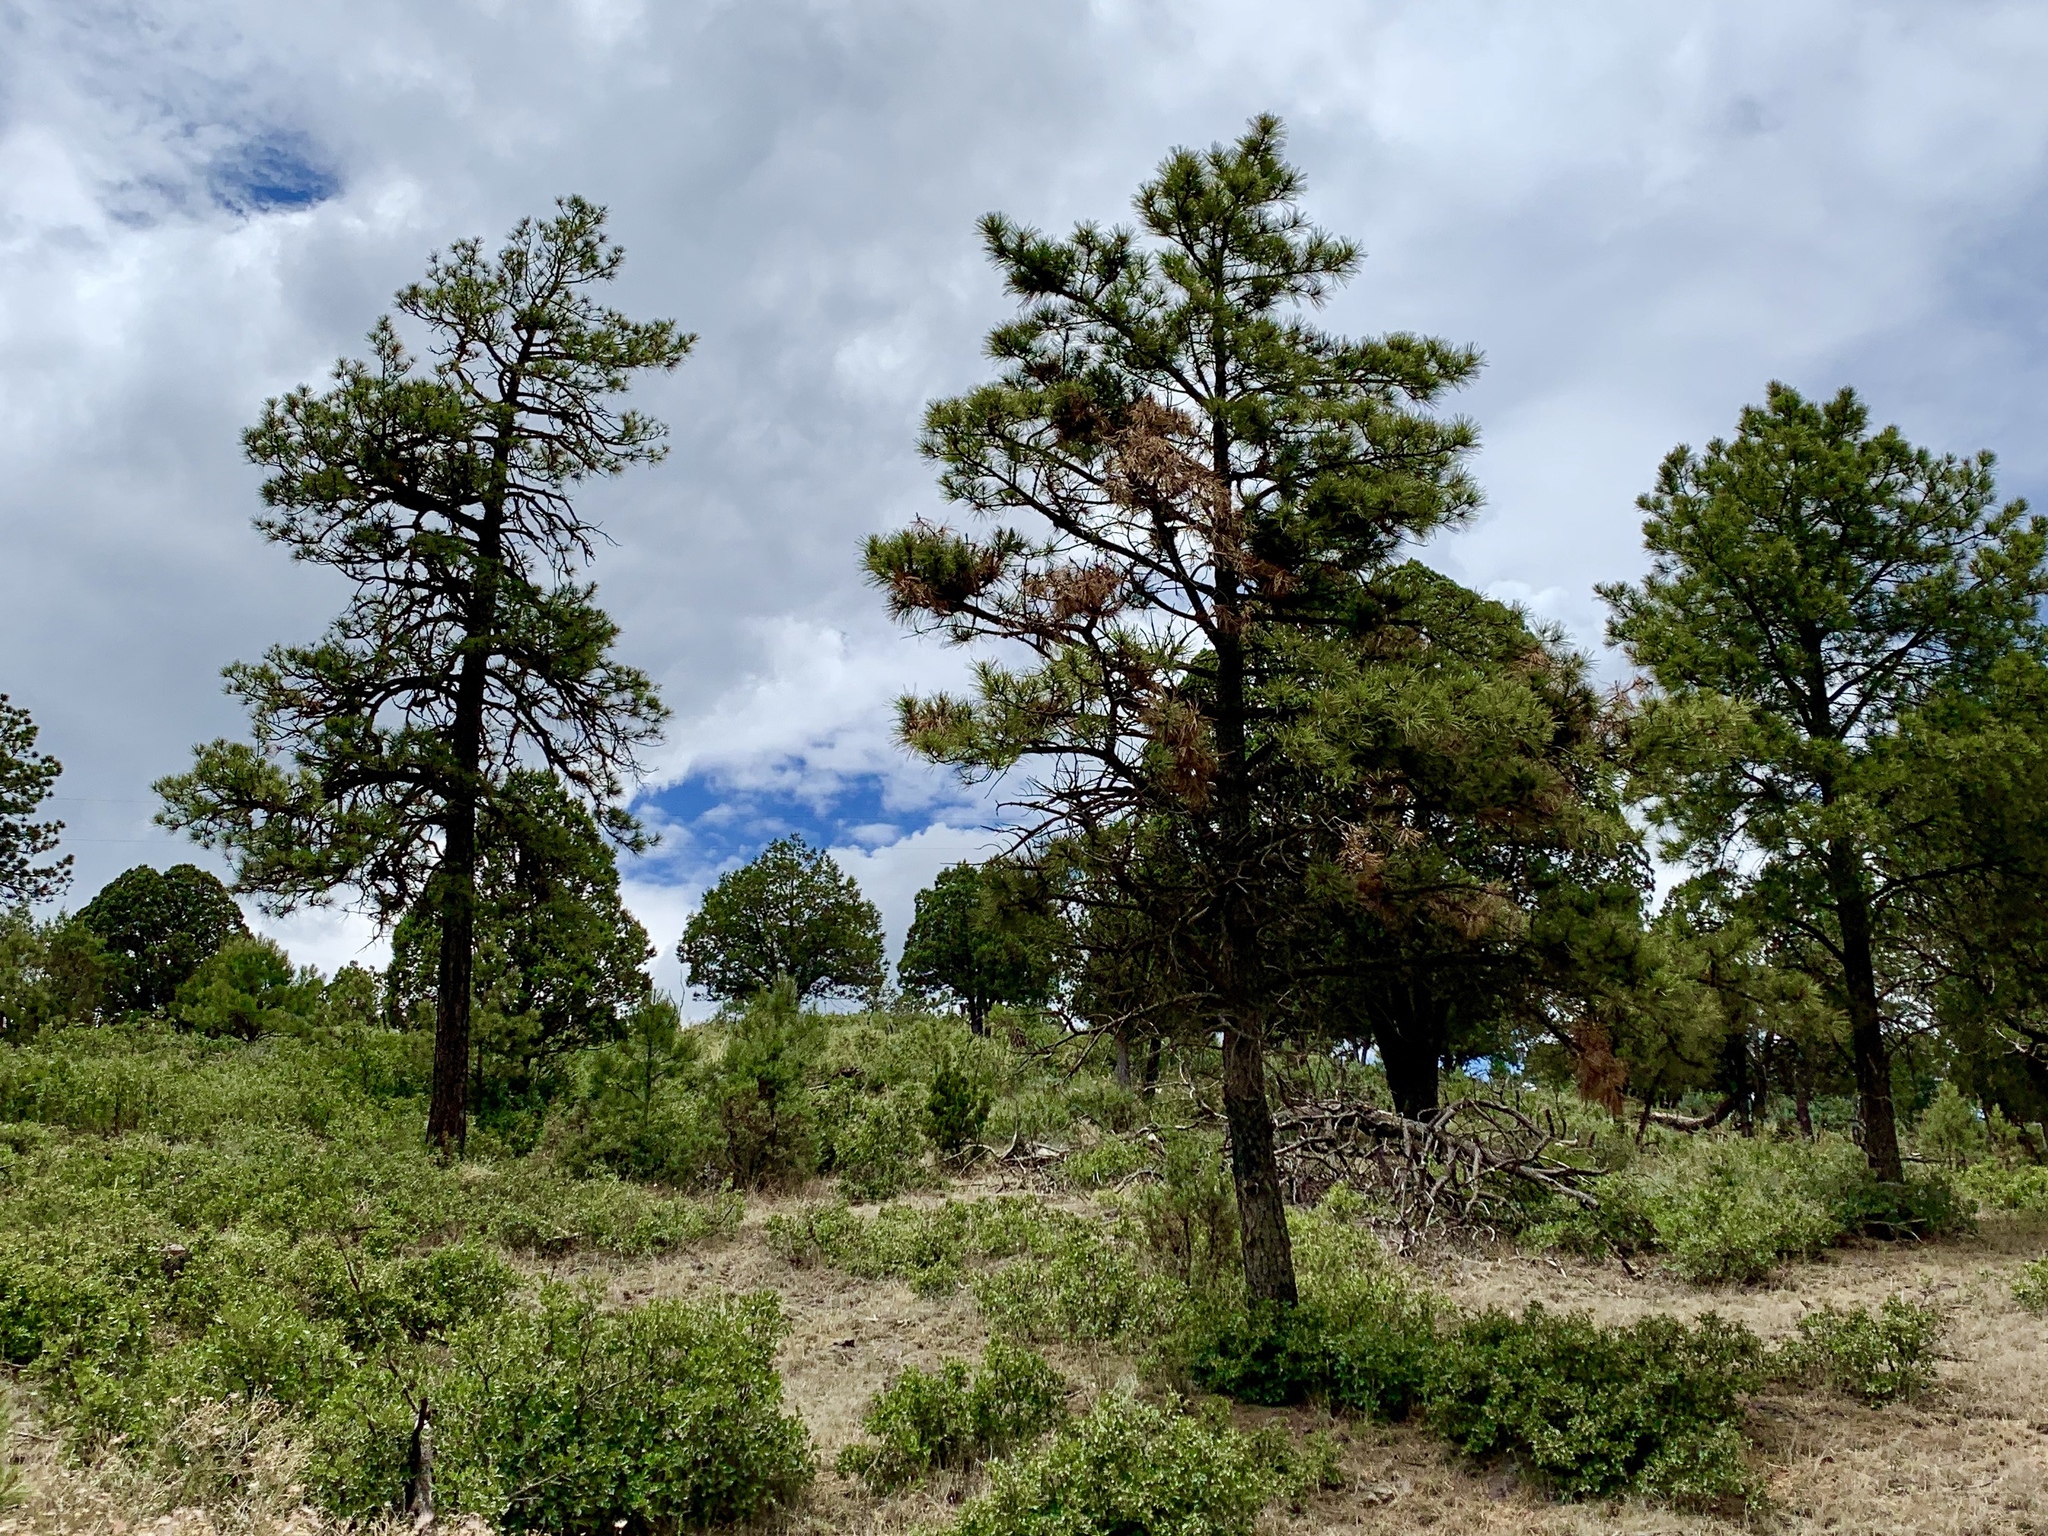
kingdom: Plantae
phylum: Tracheophyta
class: Pinopsida
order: Pinales
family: Pinaceae
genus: Pinus
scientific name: Pinus ponderosa
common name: Western yellow-pine
